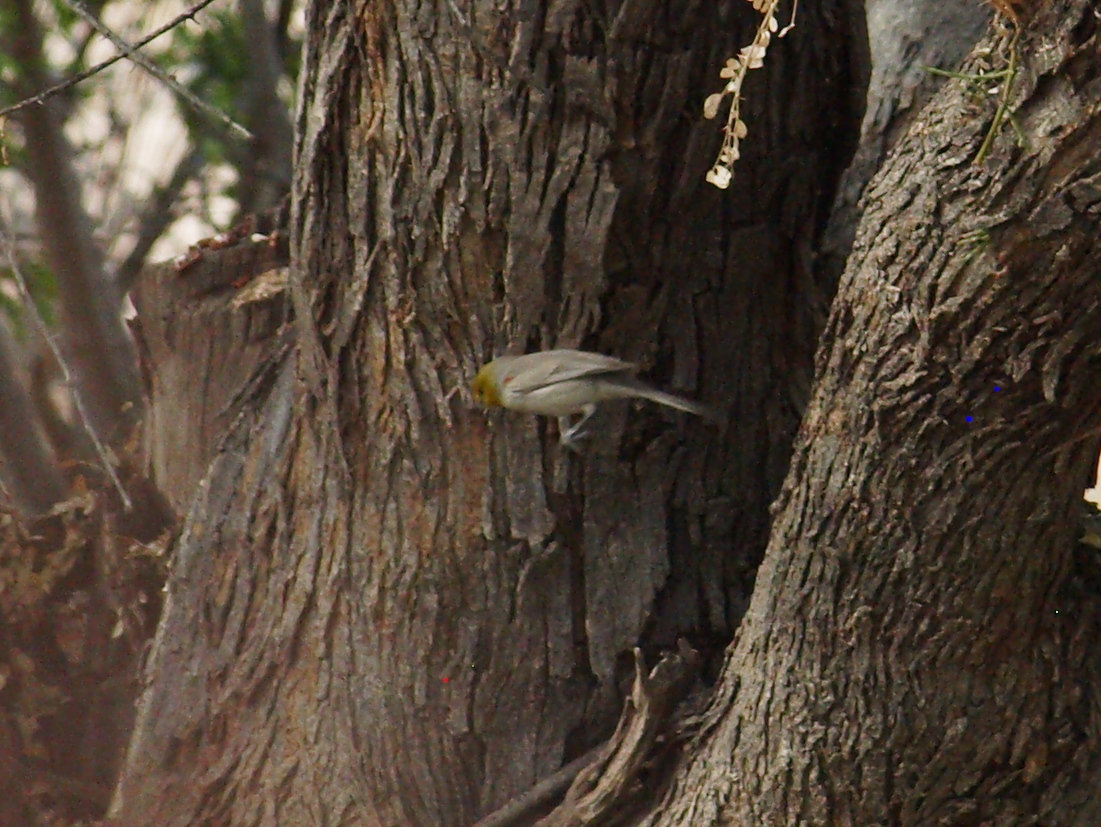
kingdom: Animalia
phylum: Chordata
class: Aves
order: Passeriformes
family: Remizidae
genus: Auriparus
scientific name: Auriparus flaviceps
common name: Verdin
